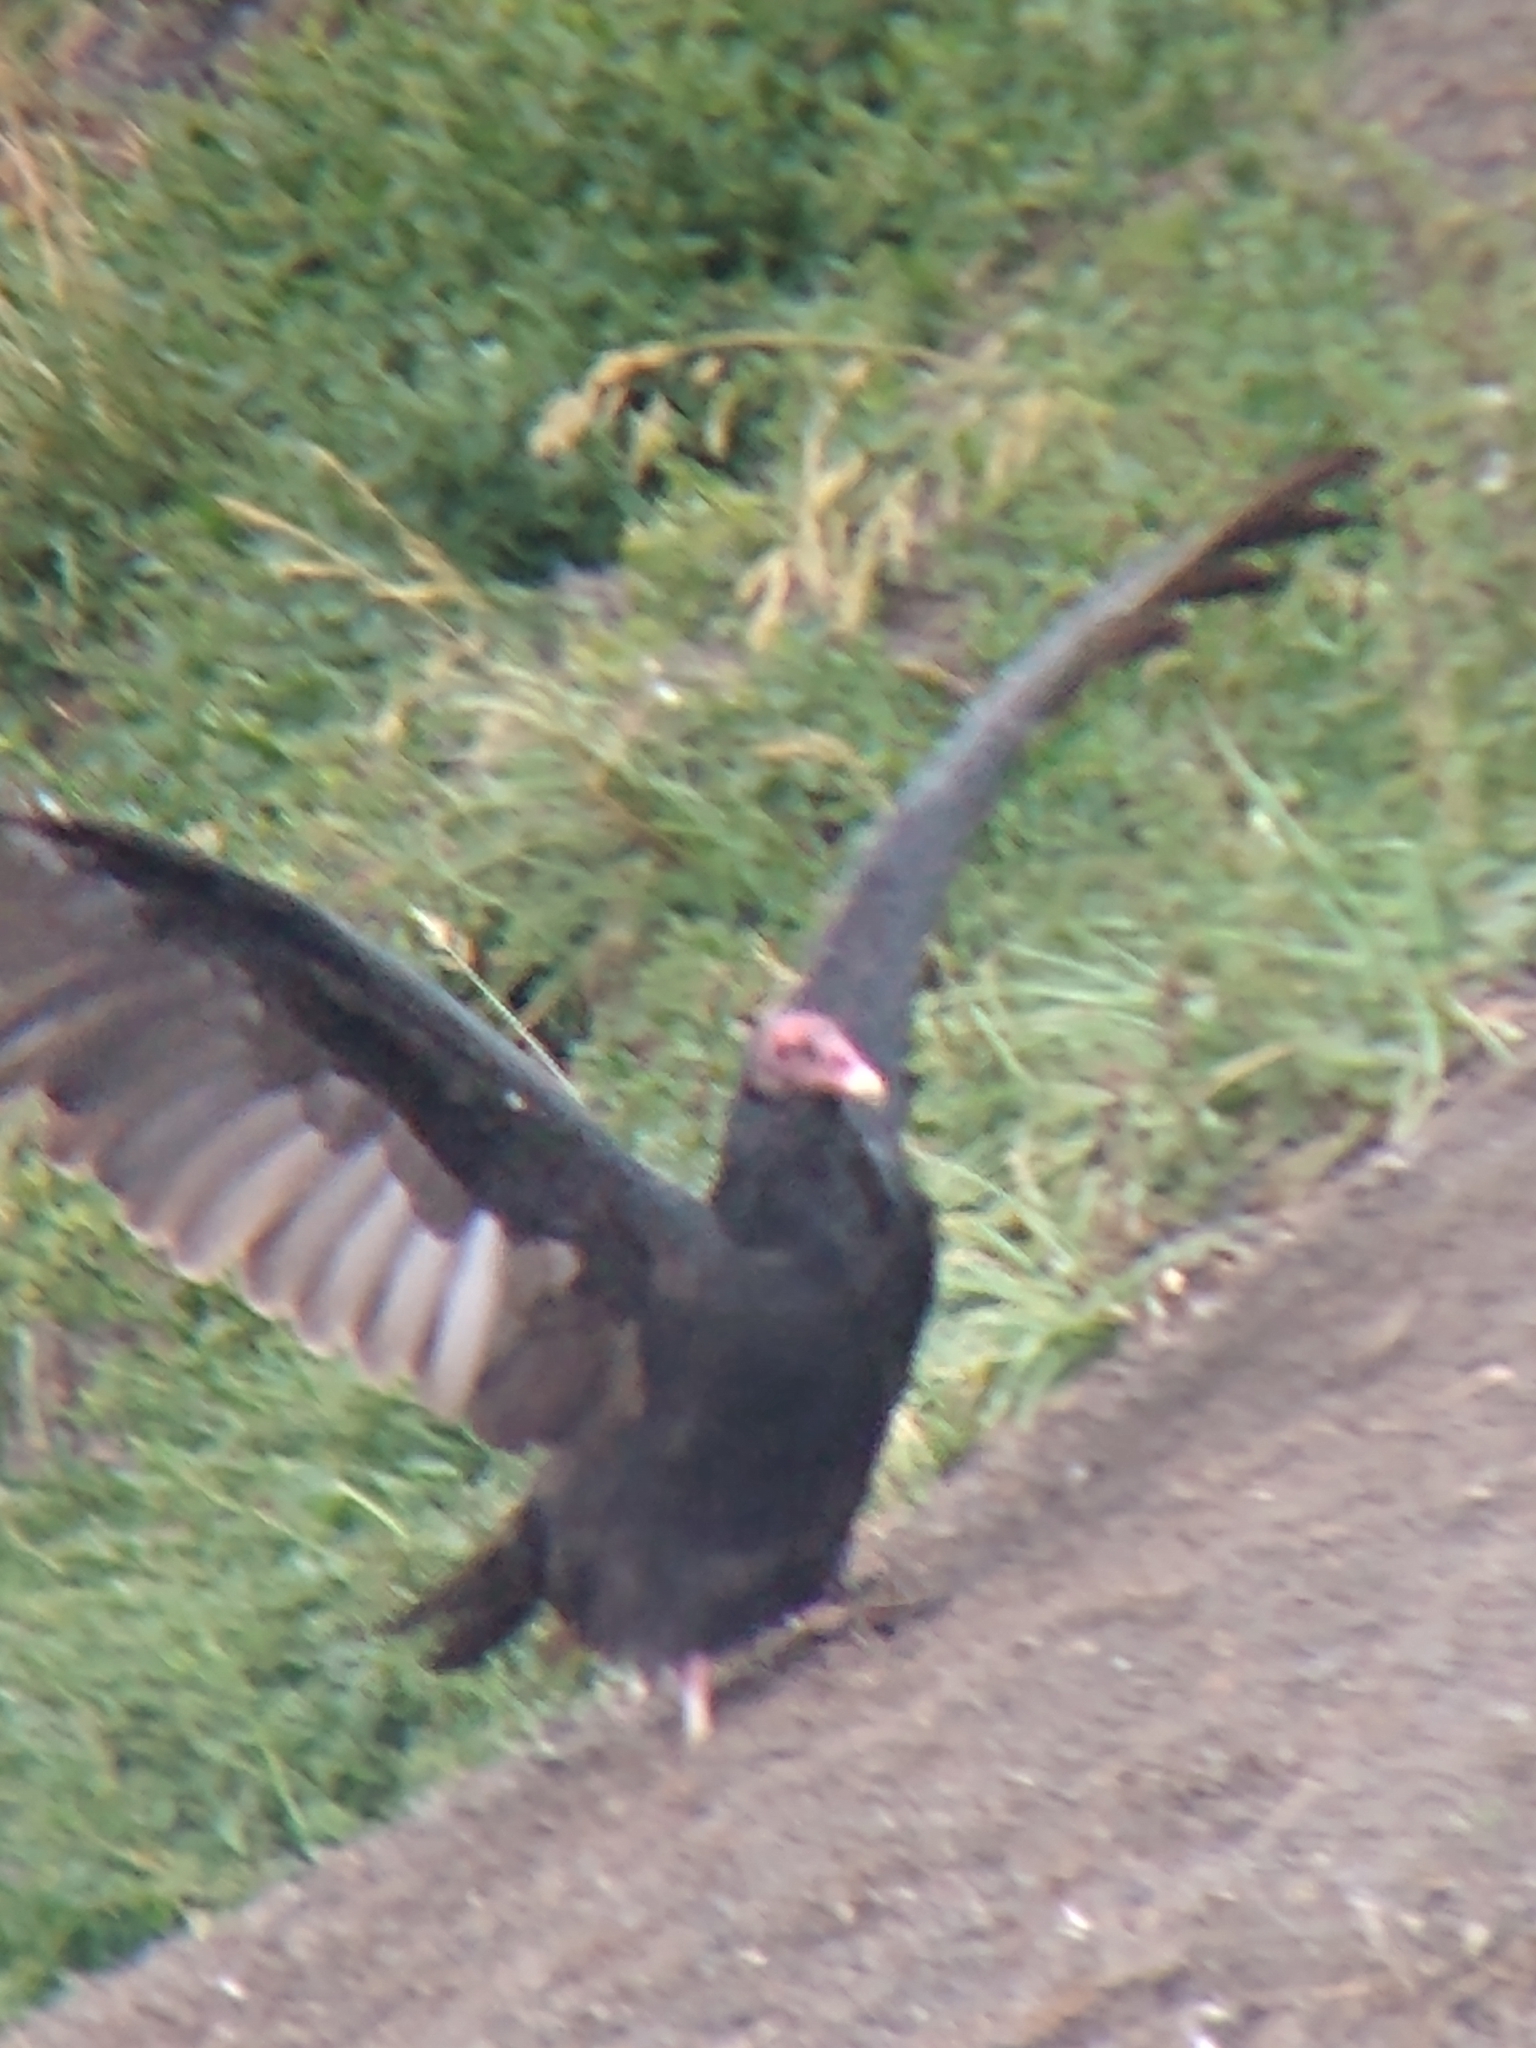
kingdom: Animalia
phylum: Chordata
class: Aves
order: Accipitriformes
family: Cathartidae
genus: Cathartes
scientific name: Cathartes aura
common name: Turkey vulture
